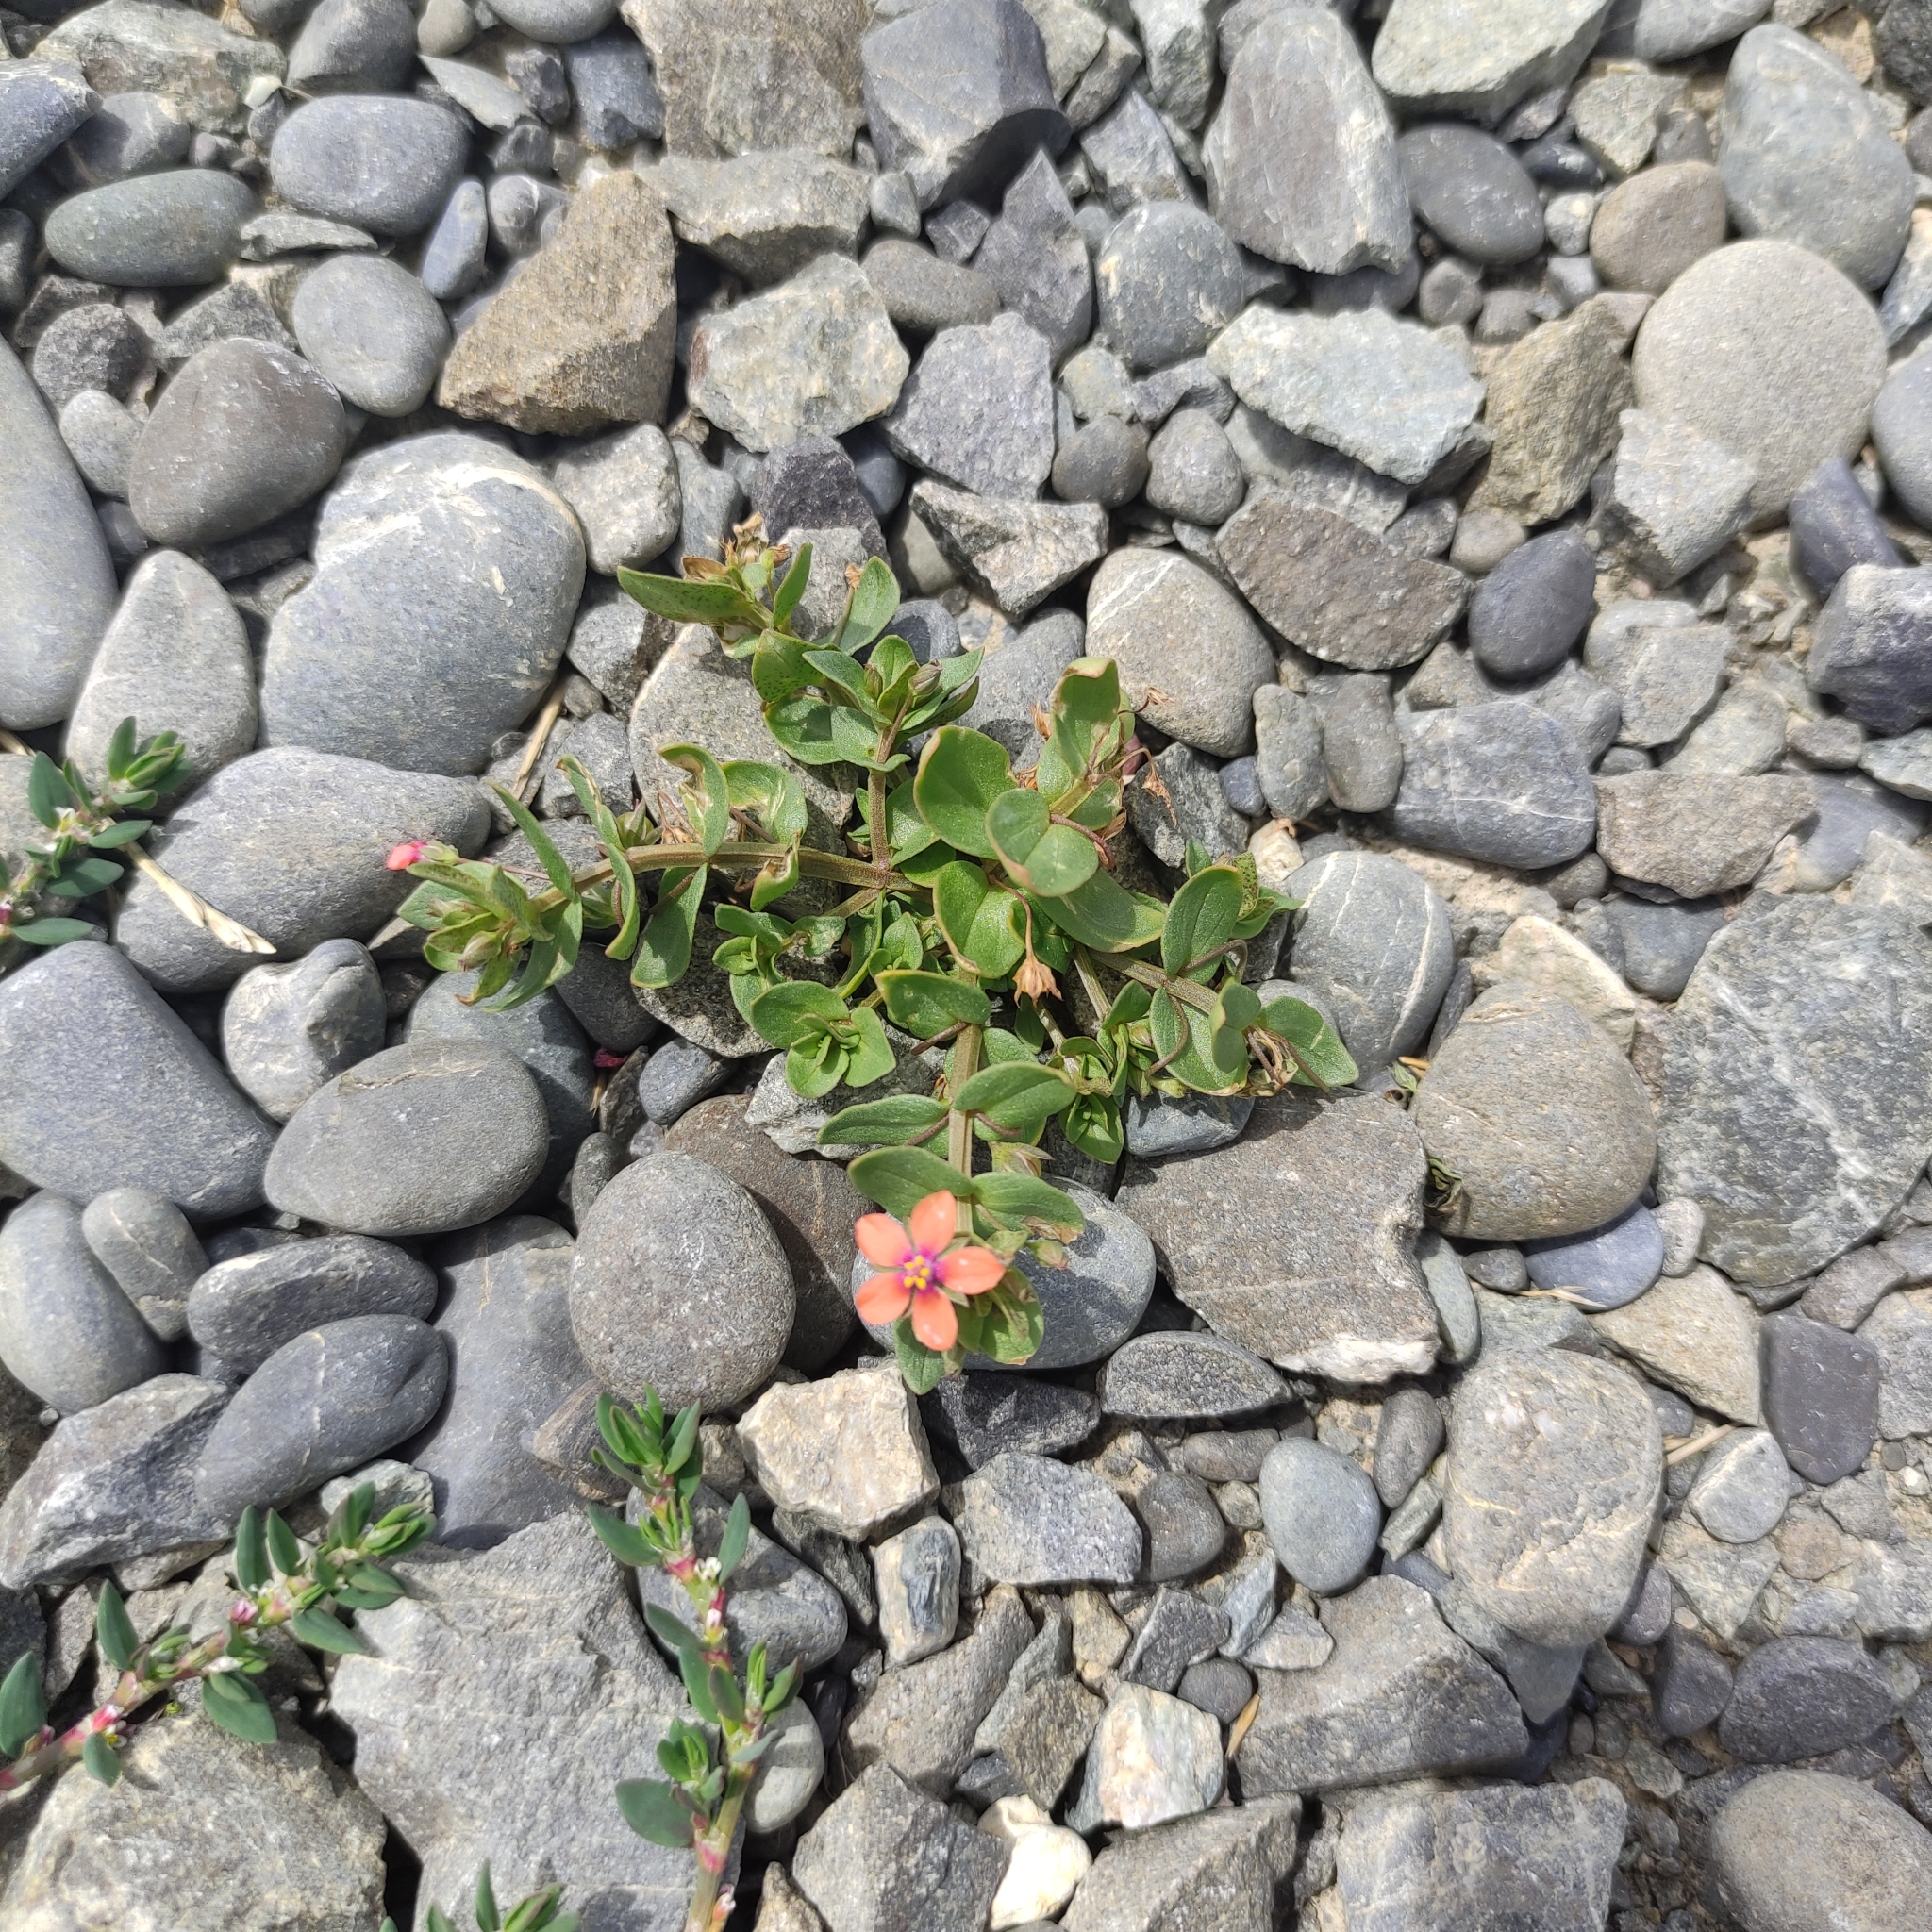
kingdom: Plantae
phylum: Tracheophyta
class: Magnoliopsida
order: Ericales
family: Primulaceae
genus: Lysimachia
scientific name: Lysimachia arvensis
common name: Scarlet pimpernel
